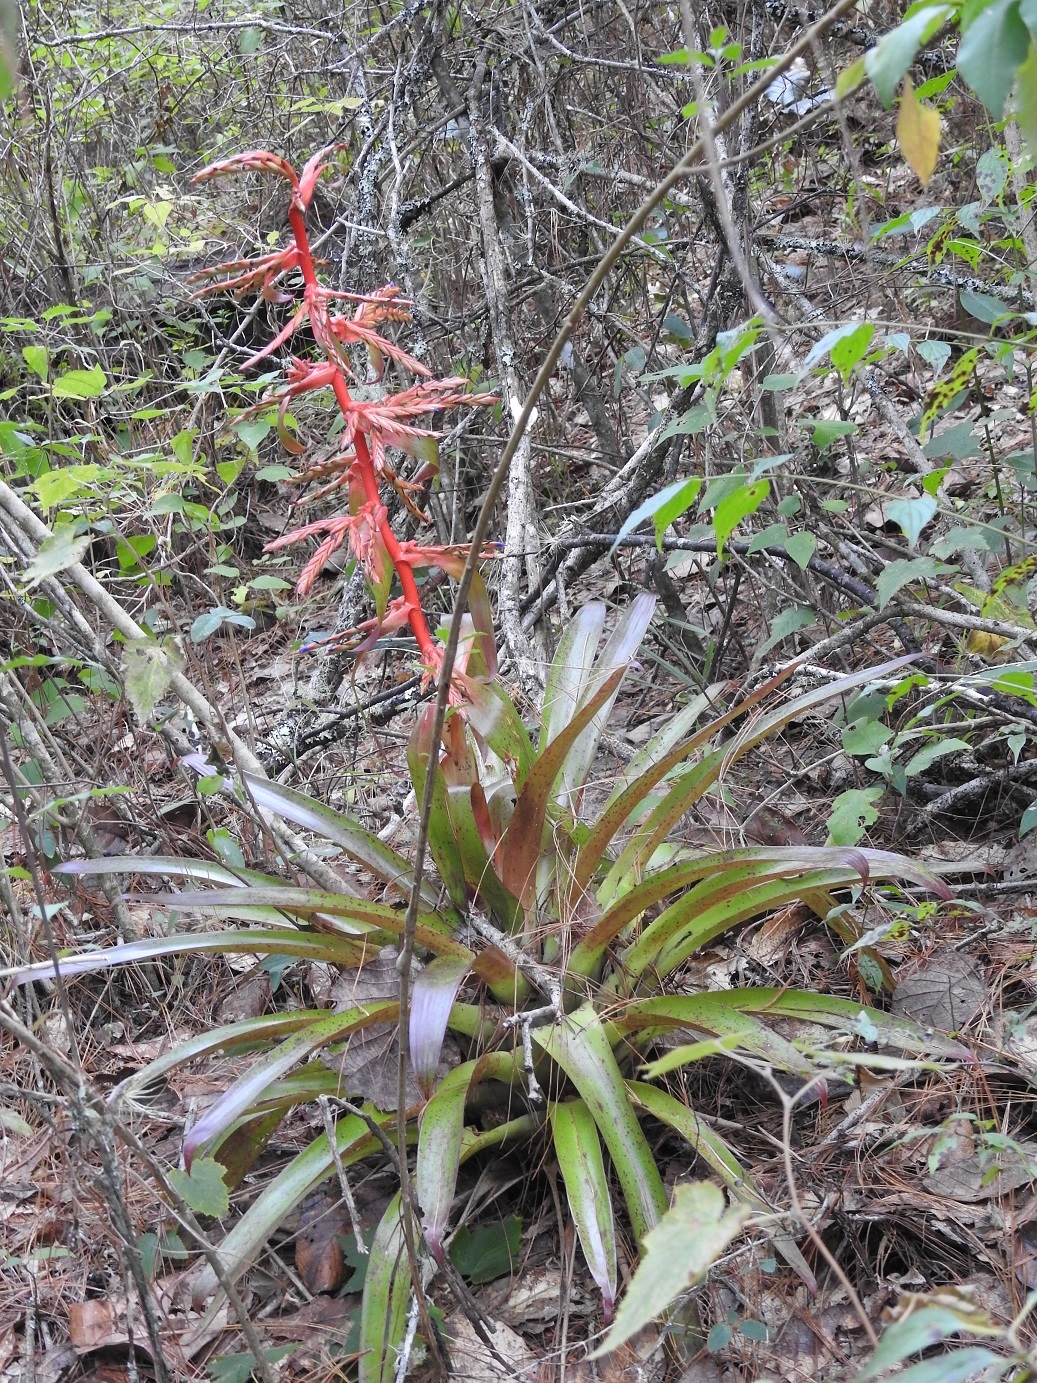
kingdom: Plantae
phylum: Tracheophyta
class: Liliopsida
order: Poales
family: Bromeliaceae
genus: Tillandsia
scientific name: Tillandsia guatemalensis
